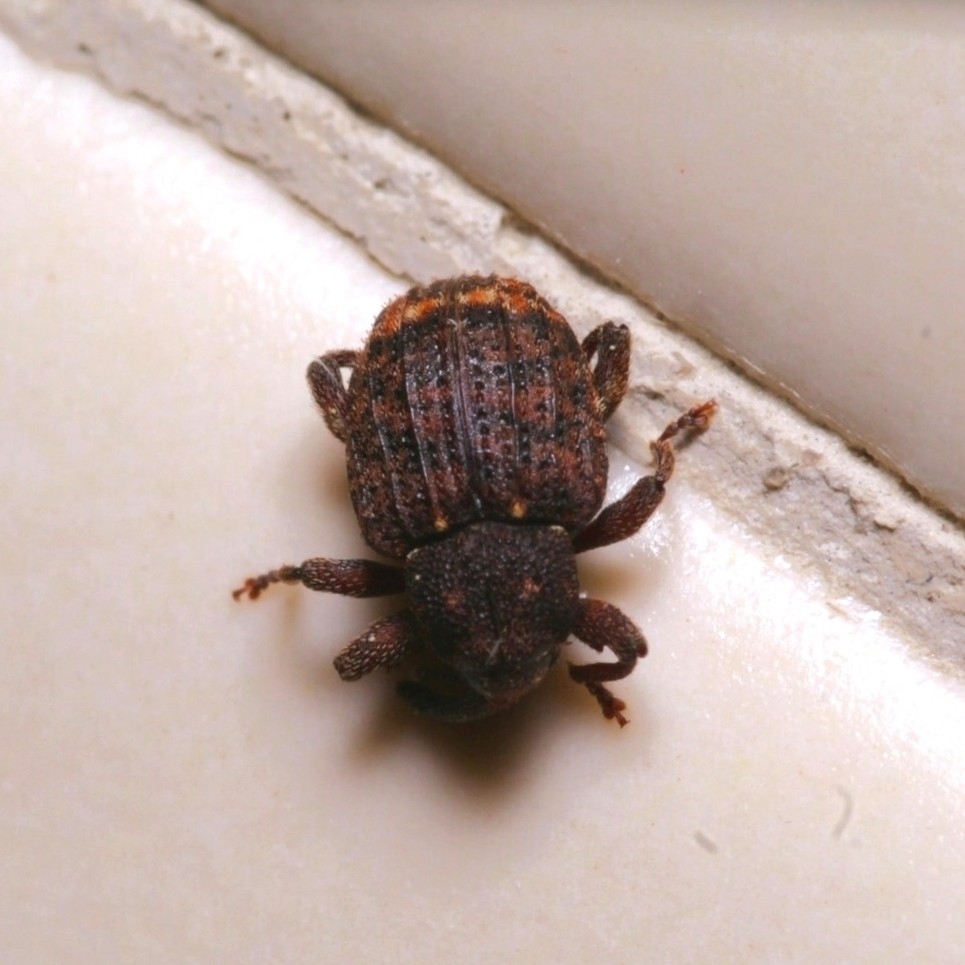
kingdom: Animalia
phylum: Arthropoda
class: Insecta
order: Coleoptera
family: Curculionidae
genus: Conotrachelus
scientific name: Conotrachelus posticatus
